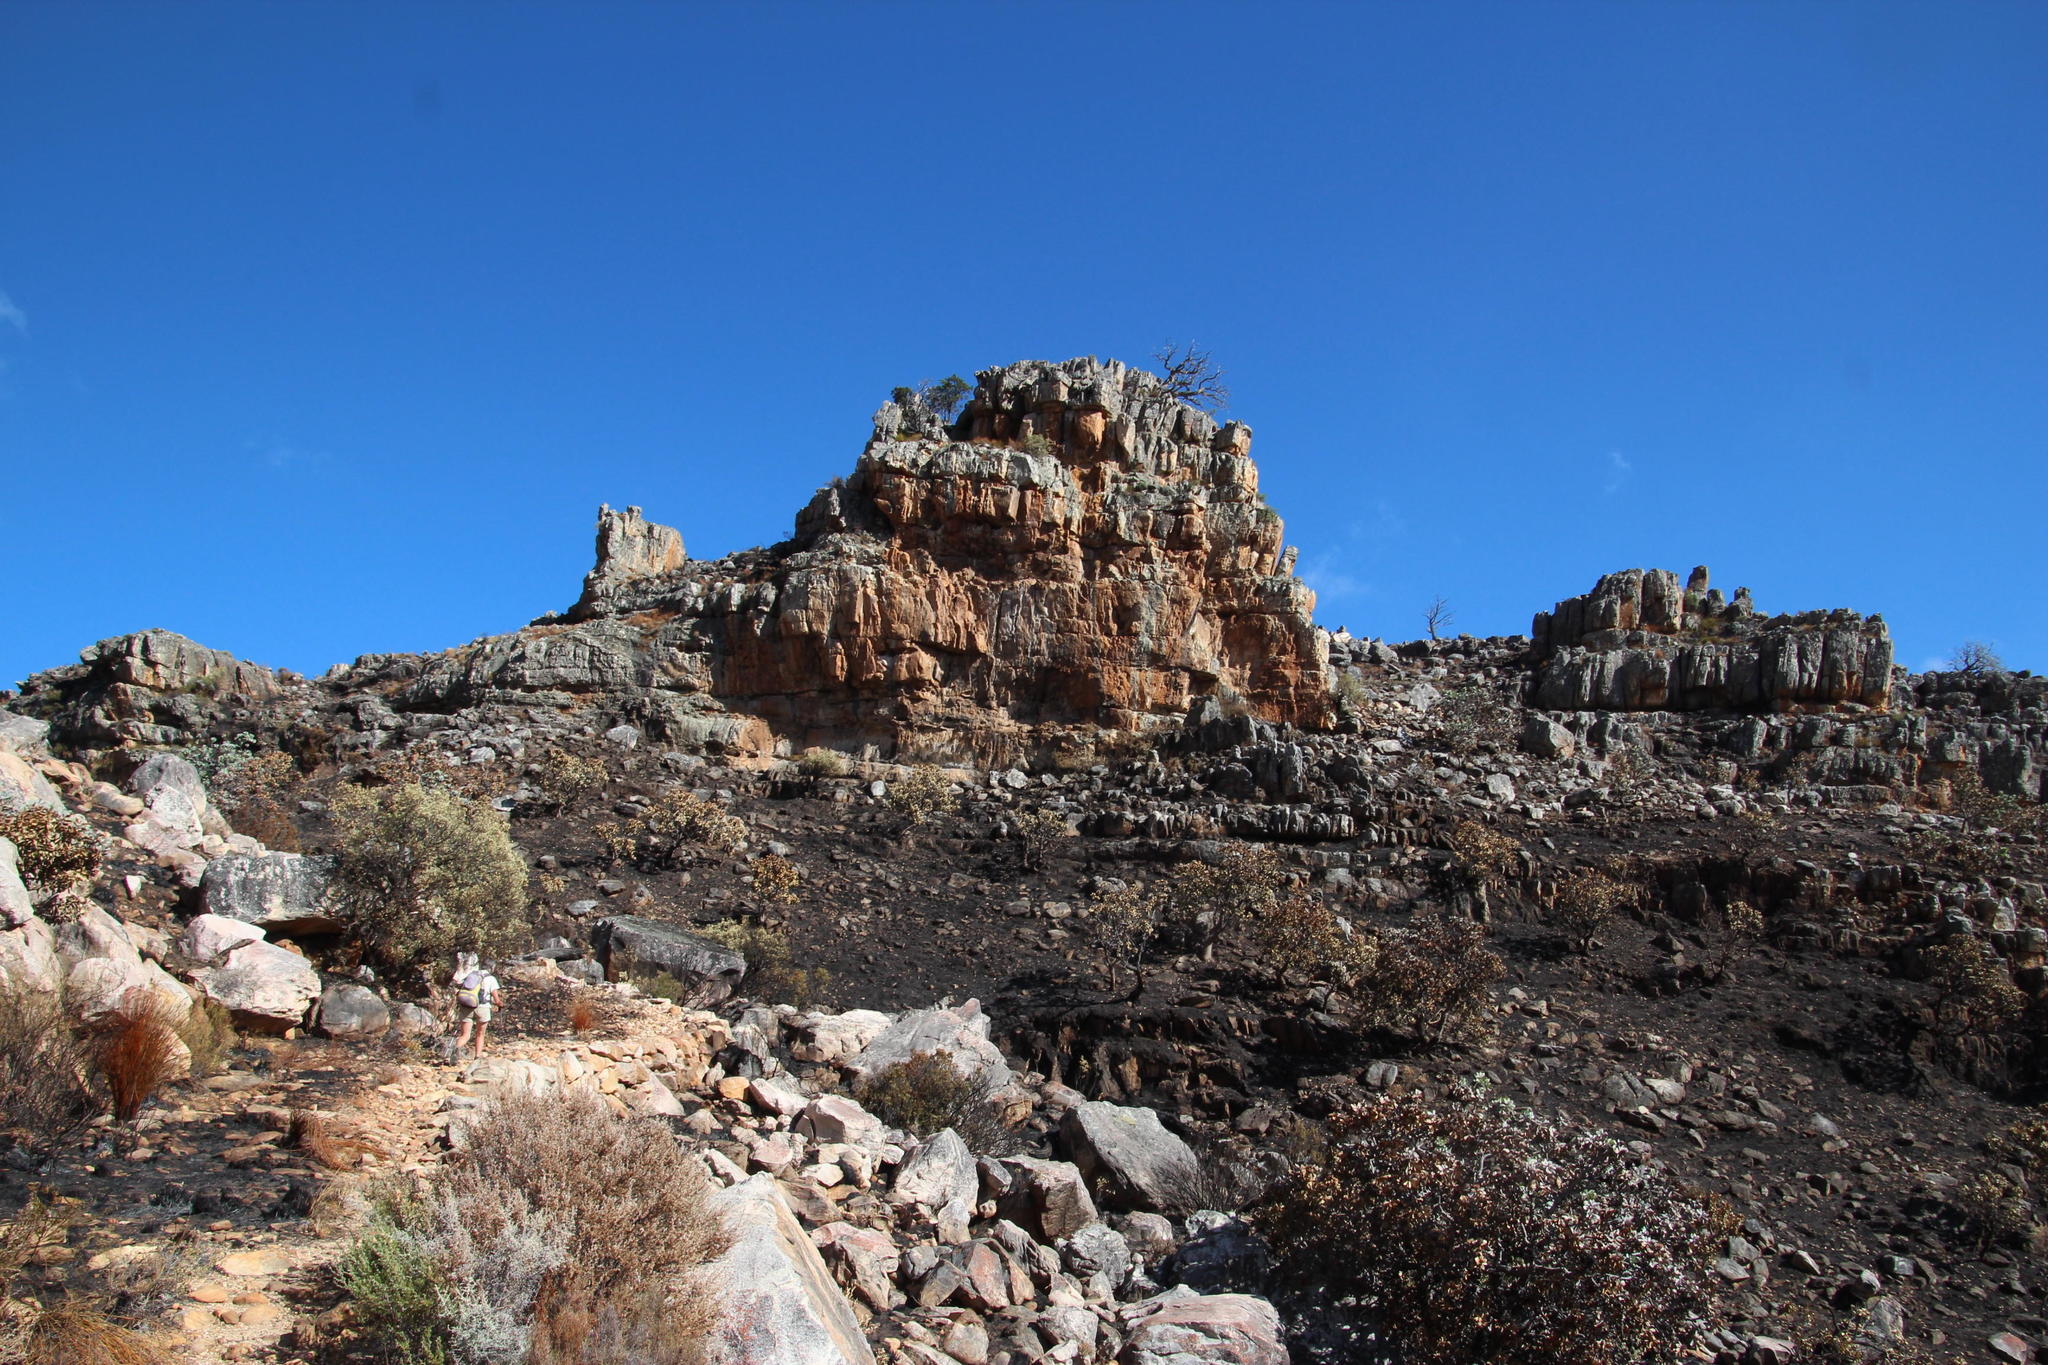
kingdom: Plantae
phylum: Tracheophyta
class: Pinopsida
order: Pinales
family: Cupressaceae
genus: Widdringtonia
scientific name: Widdringtonia nodiflora
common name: Cape cypress
